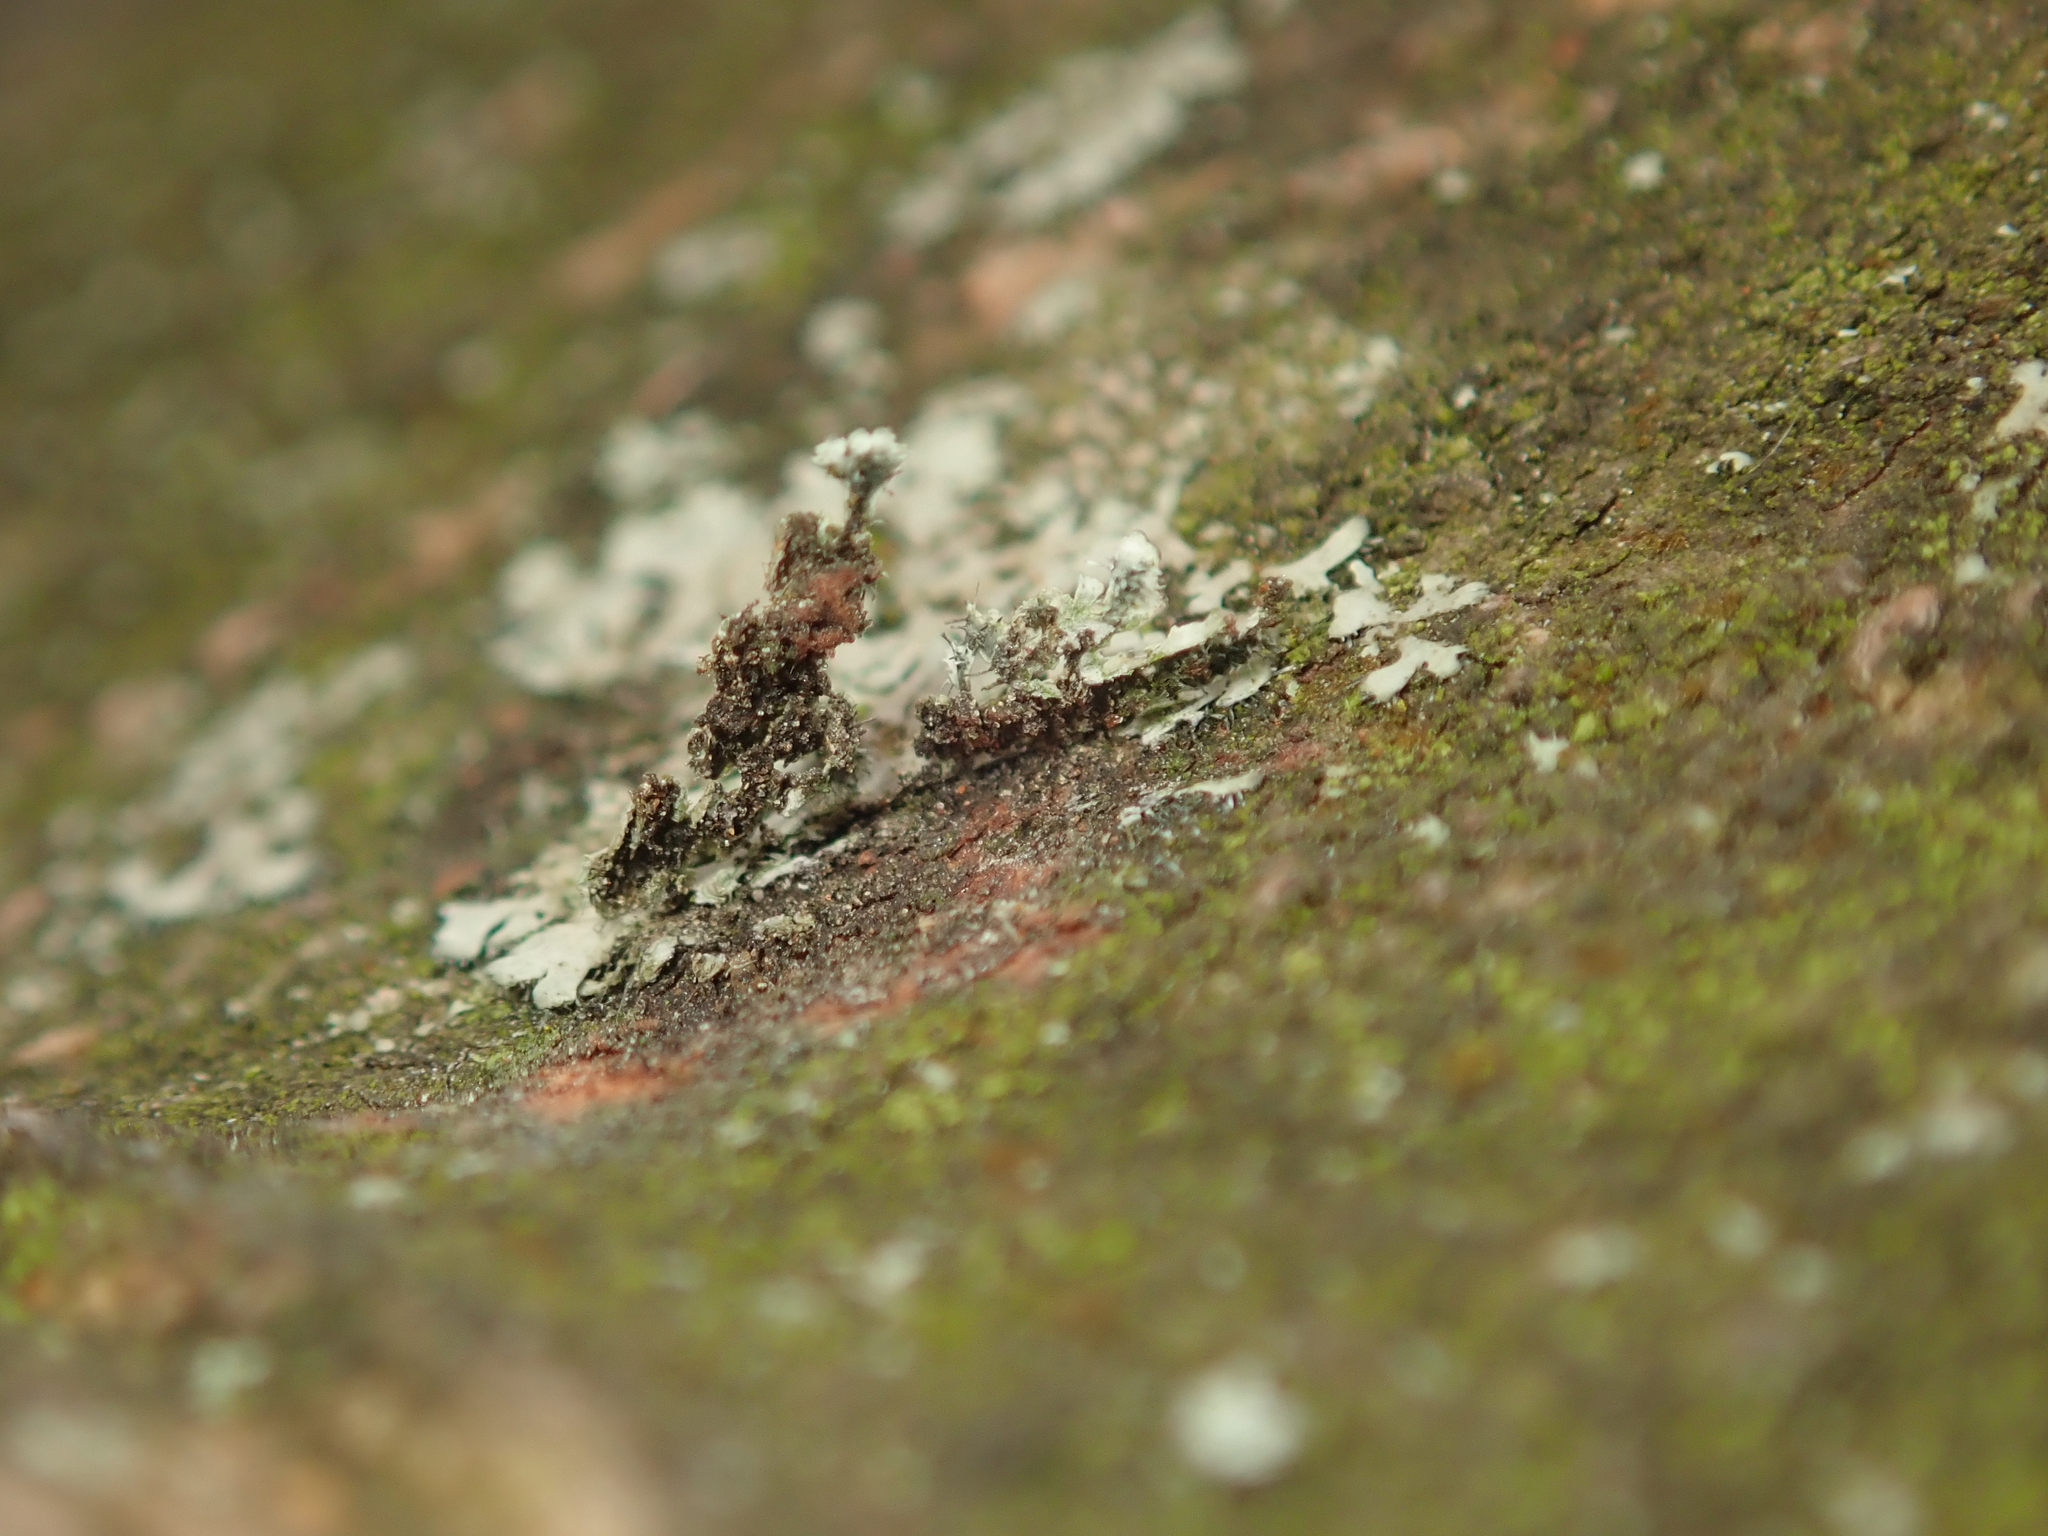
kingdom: Fungi
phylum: Ascomycota
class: Lecanoromycetes
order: Caliciales
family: Physciaceae
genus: Hyperphyscia
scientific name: Hyperphyscia adglutinata
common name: Grainy shadow-crust lichen
